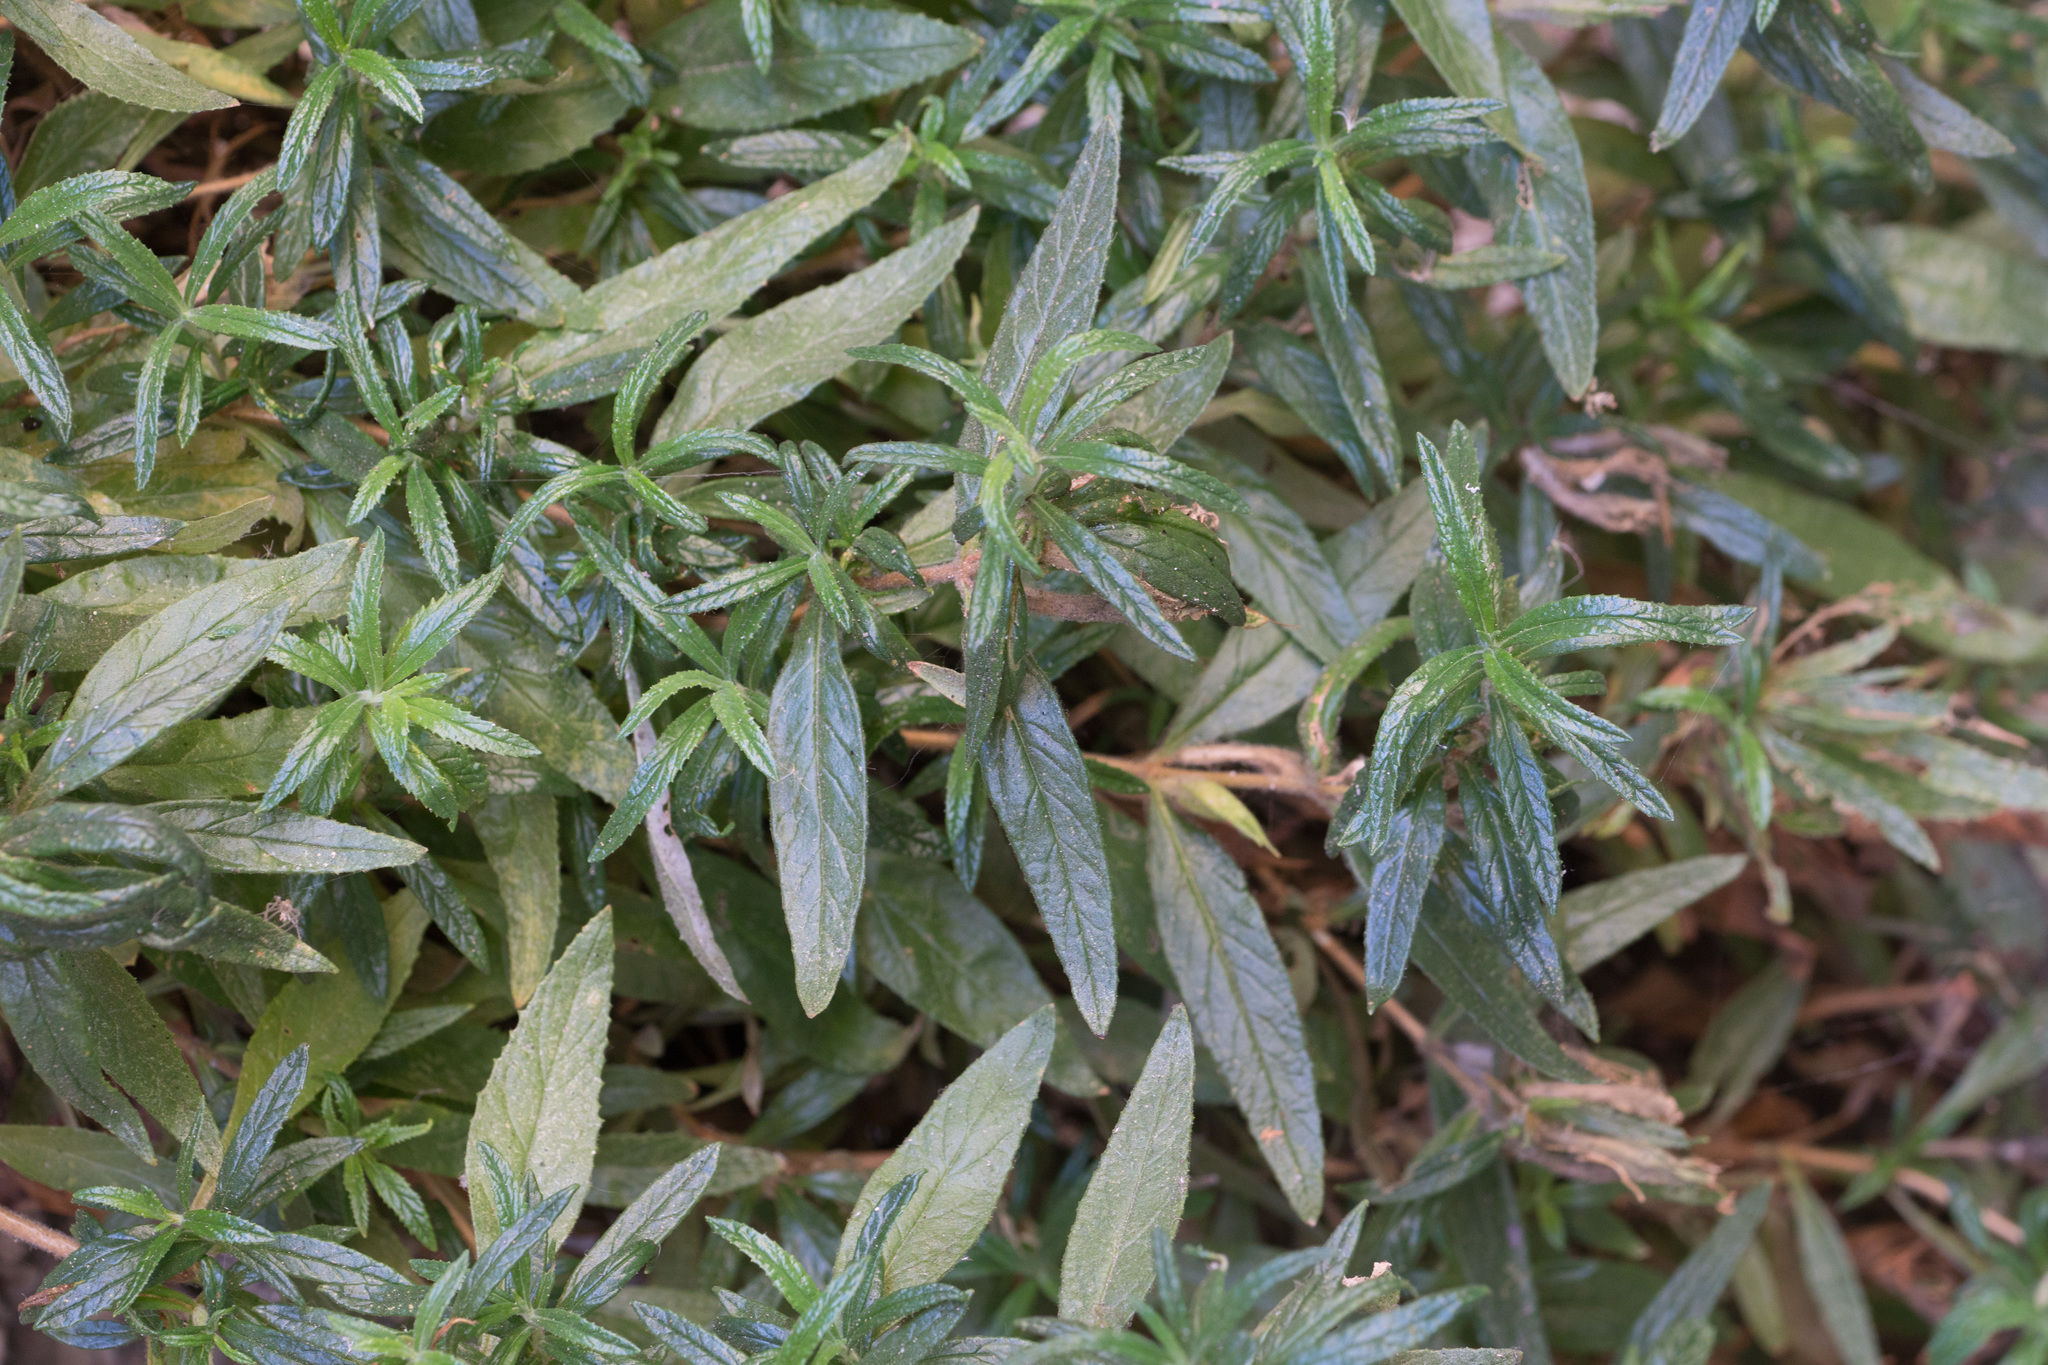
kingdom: Plantae
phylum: Tracheophyta
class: Magnoliopsida
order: Lamiales
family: Phrymaceae
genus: Diplacus
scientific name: Diplacus longiflorus
